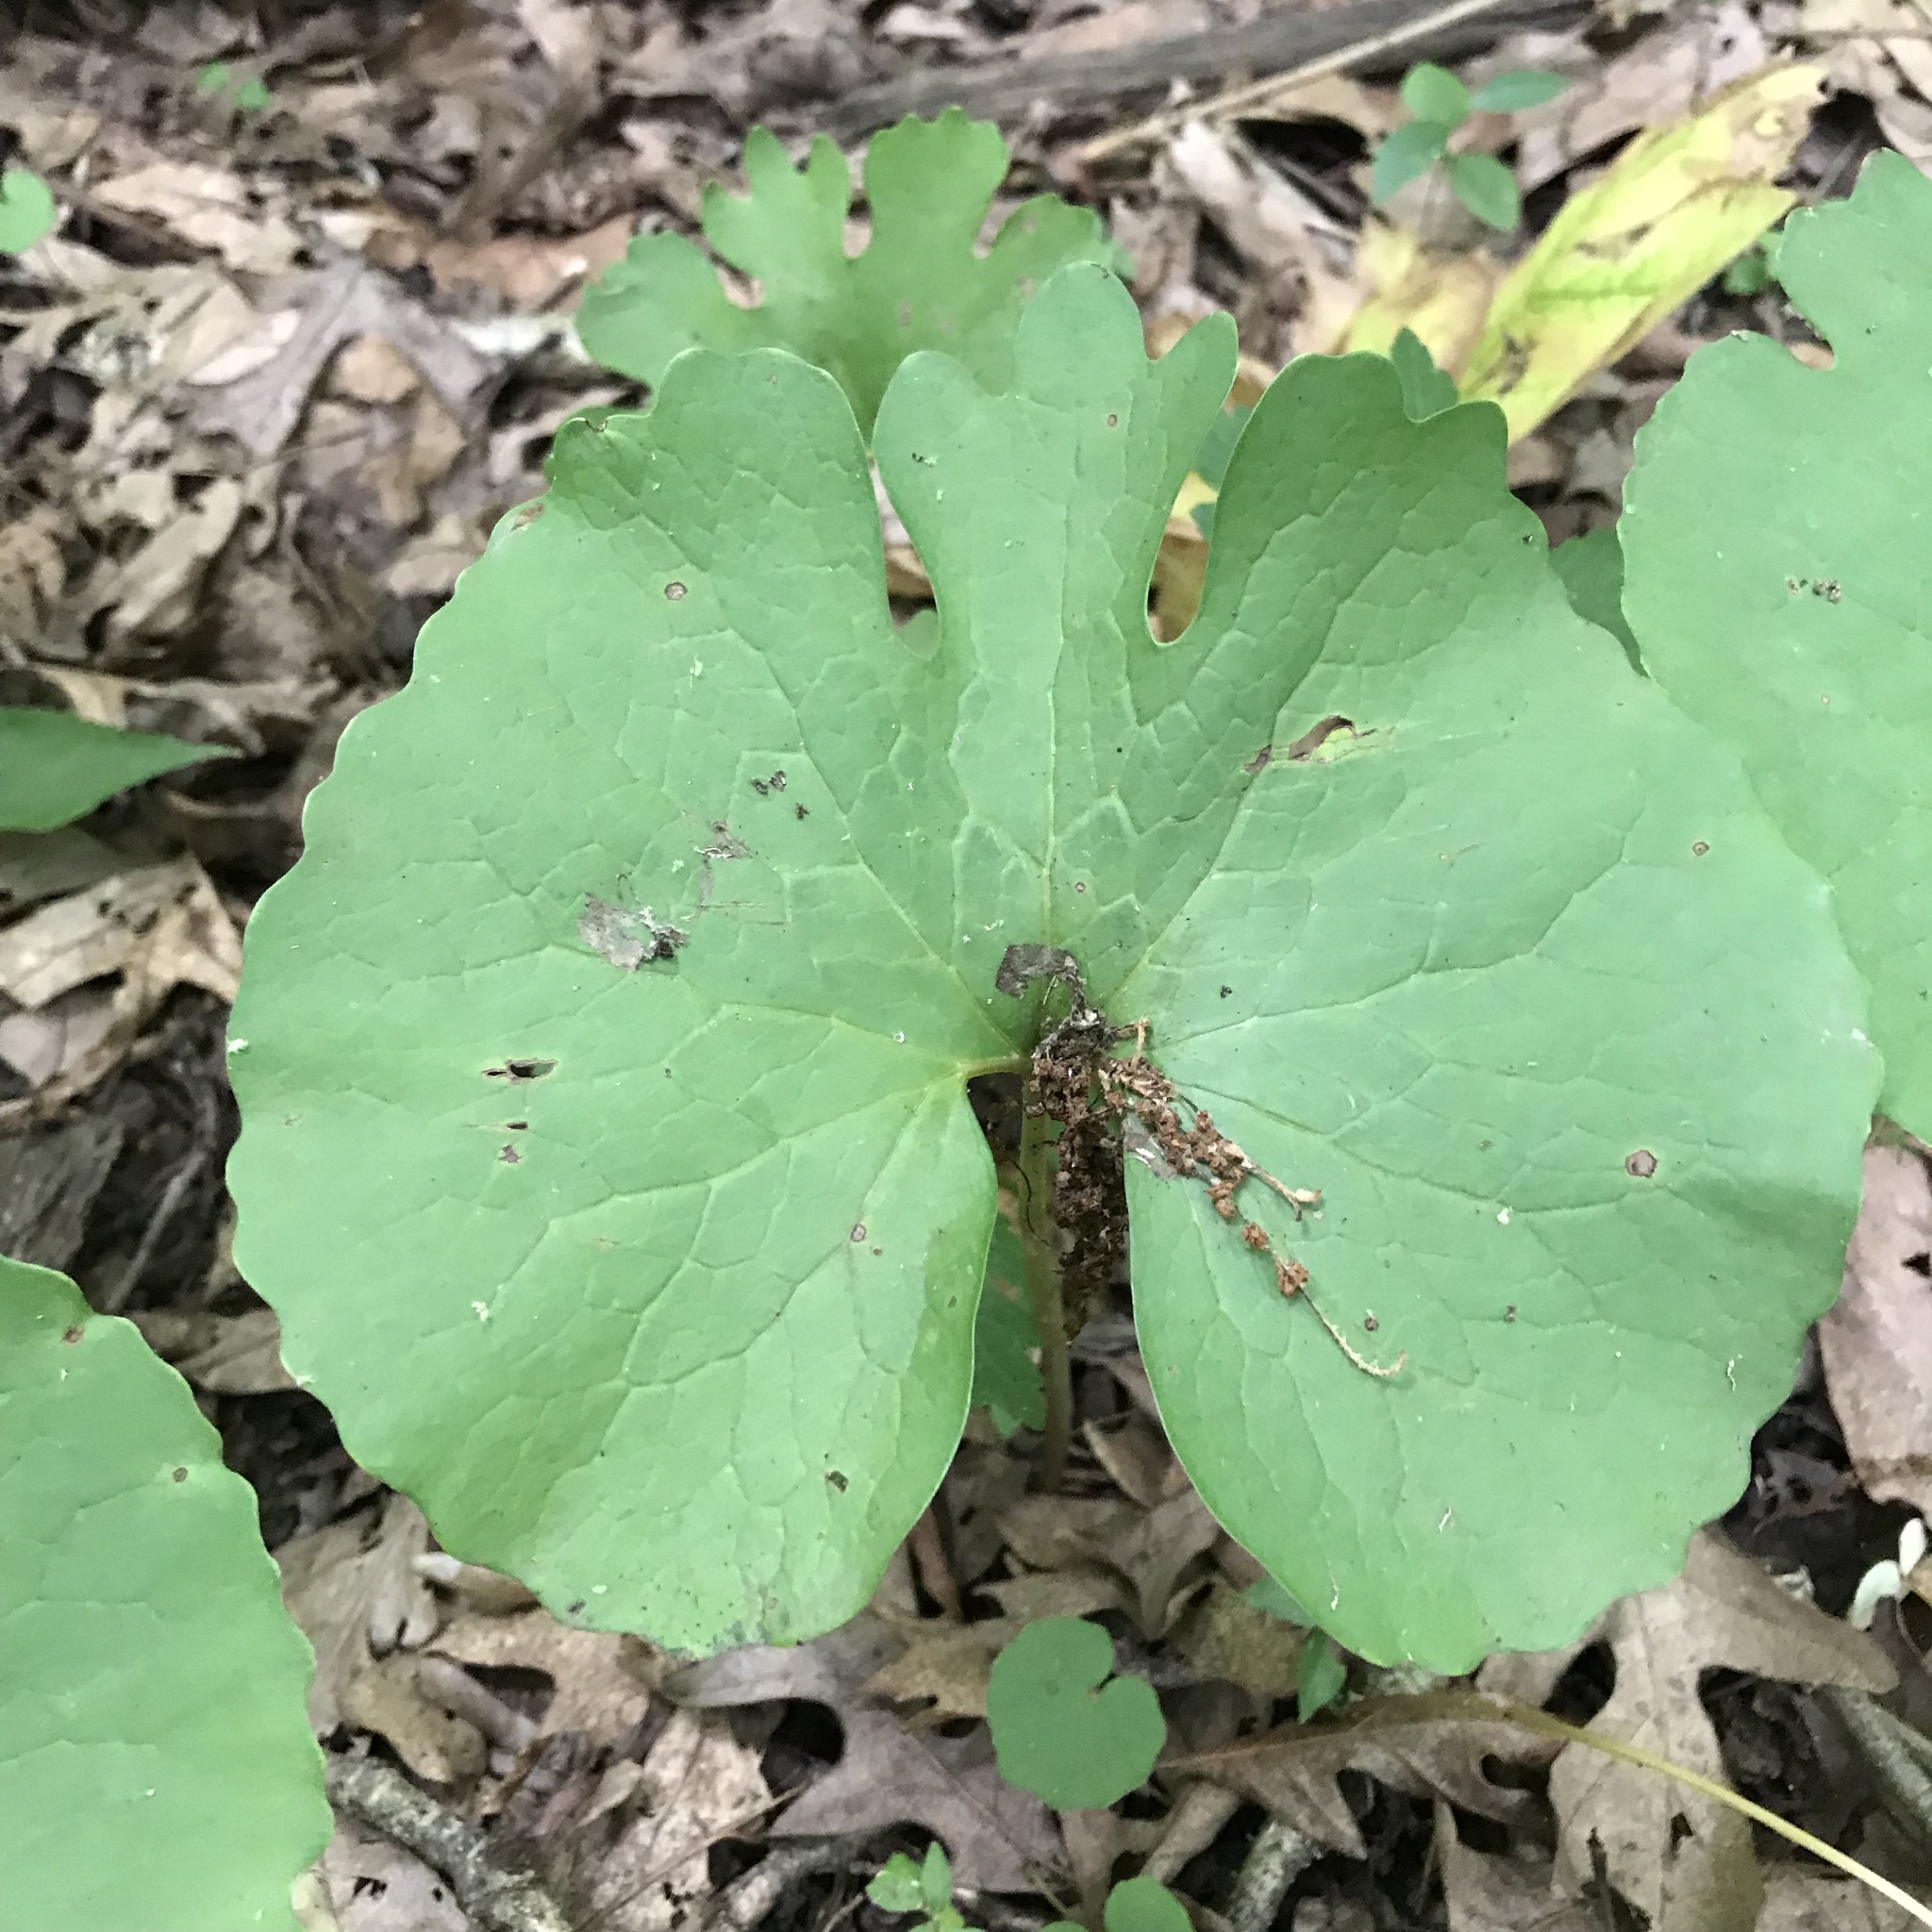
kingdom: Plantae
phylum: Tracheophyta
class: Magnoliopsida
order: Ranunculales
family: Papaveraceae
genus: Sanguinaria
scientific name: Sanguinaria canadensis
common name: Bloodroot
